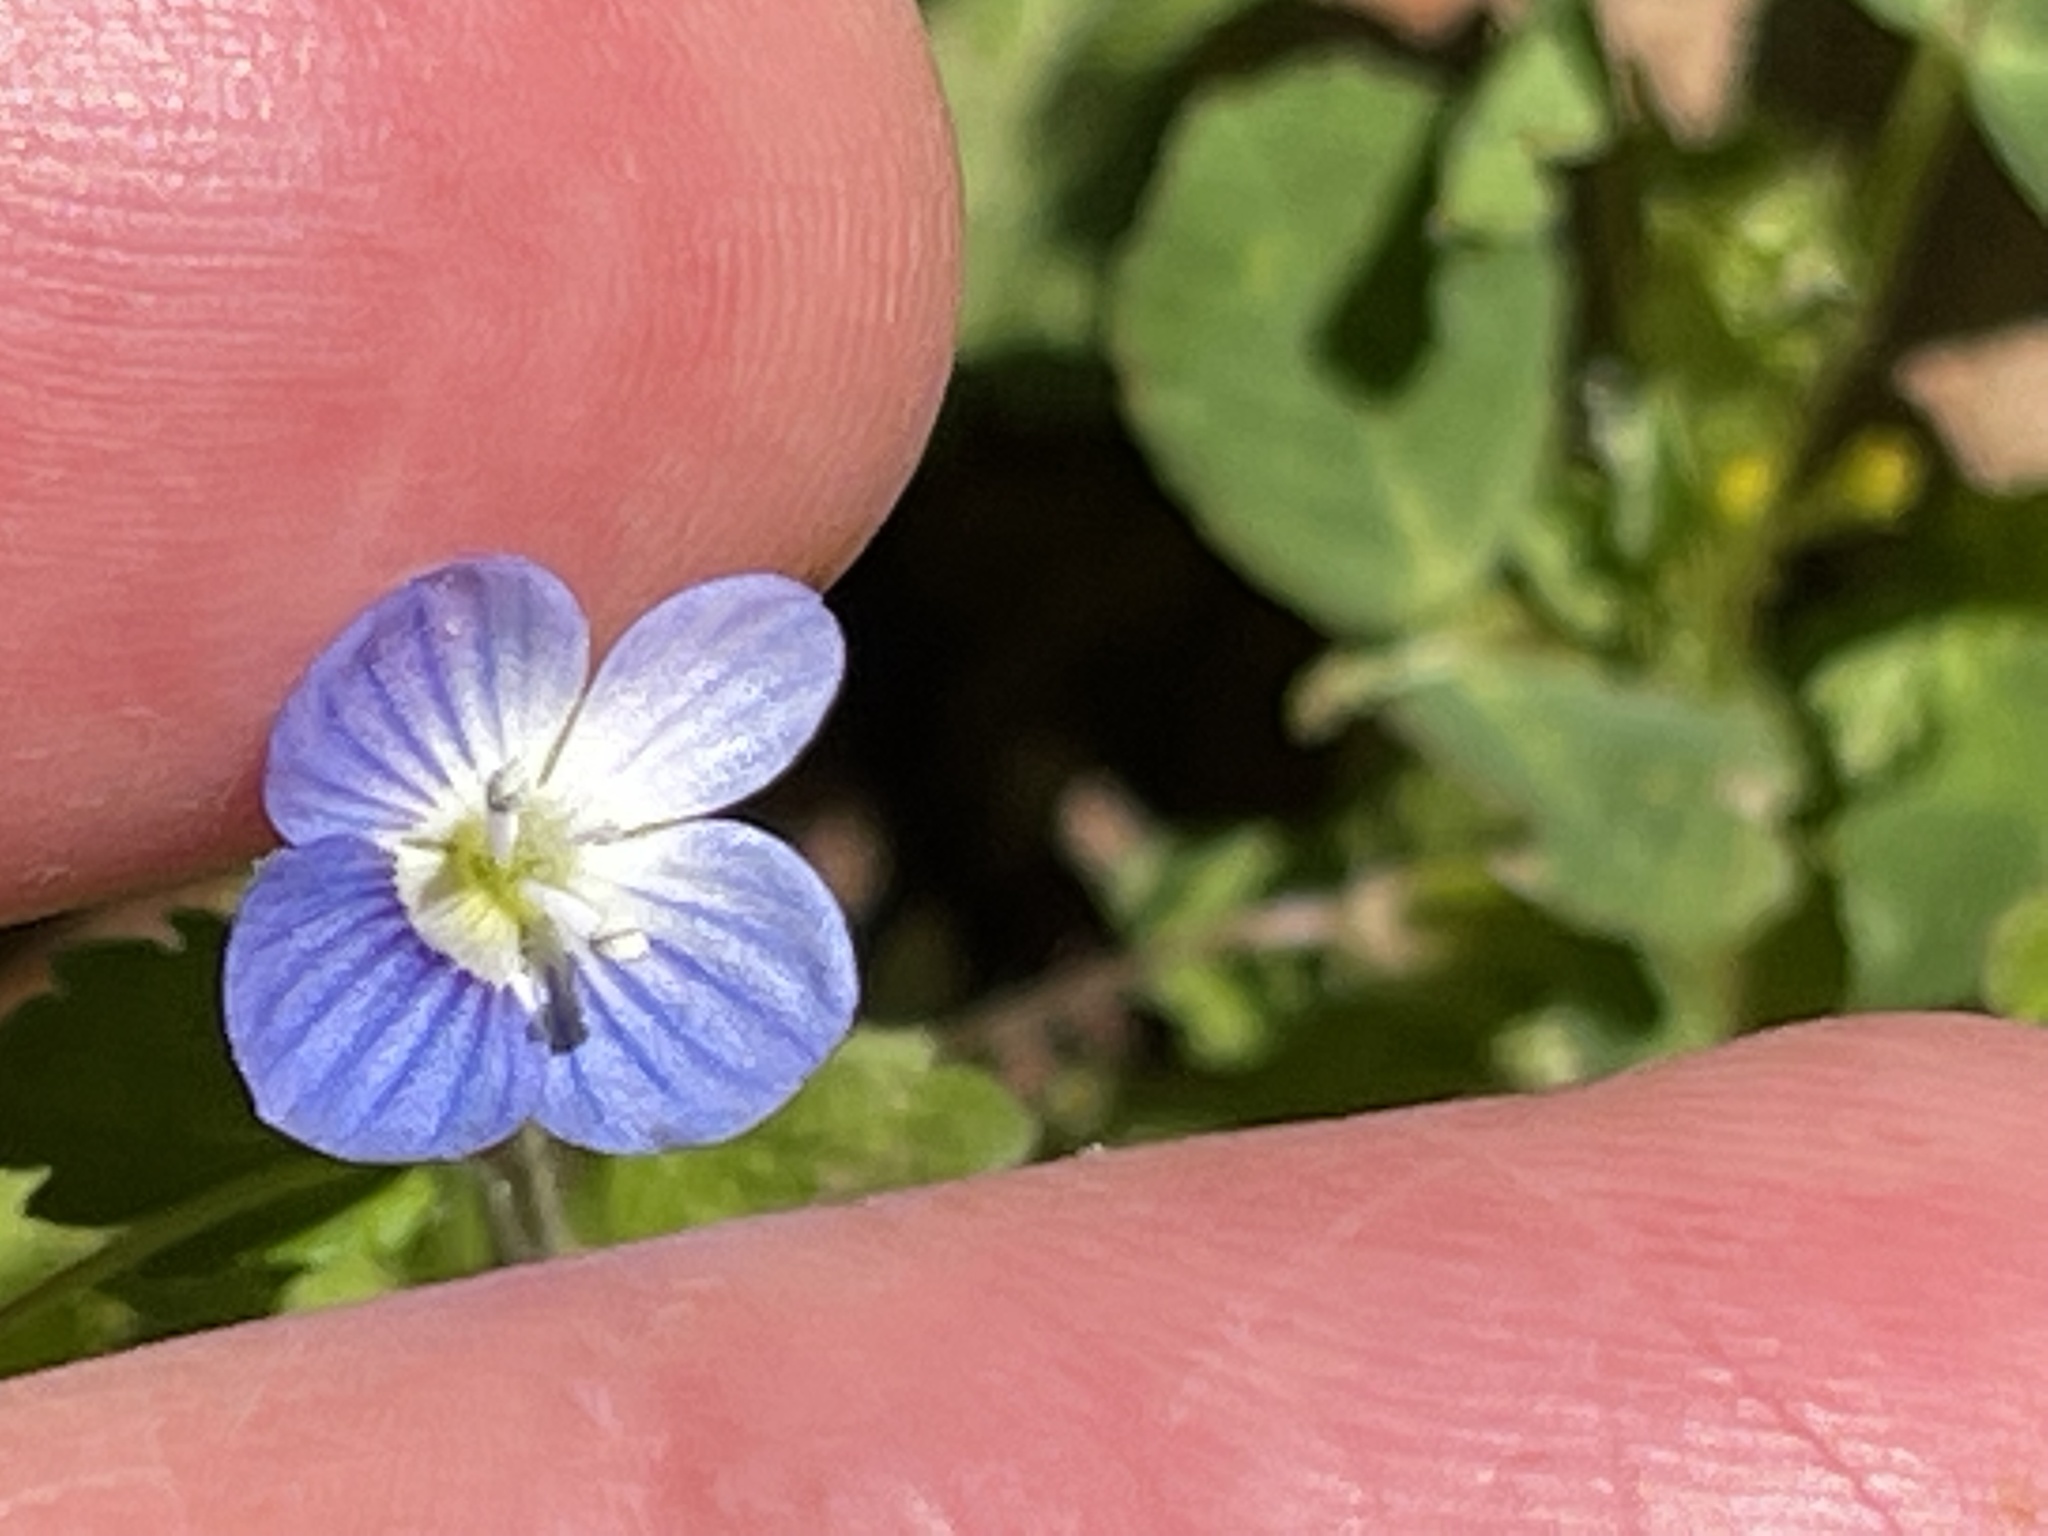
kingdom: Plantae
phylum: Tracheophyta
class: Magnoliopsida
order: Lamiales
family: Plantaginaceae
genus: Veronica
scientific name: Veronica persica
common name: Common field-speedwell
